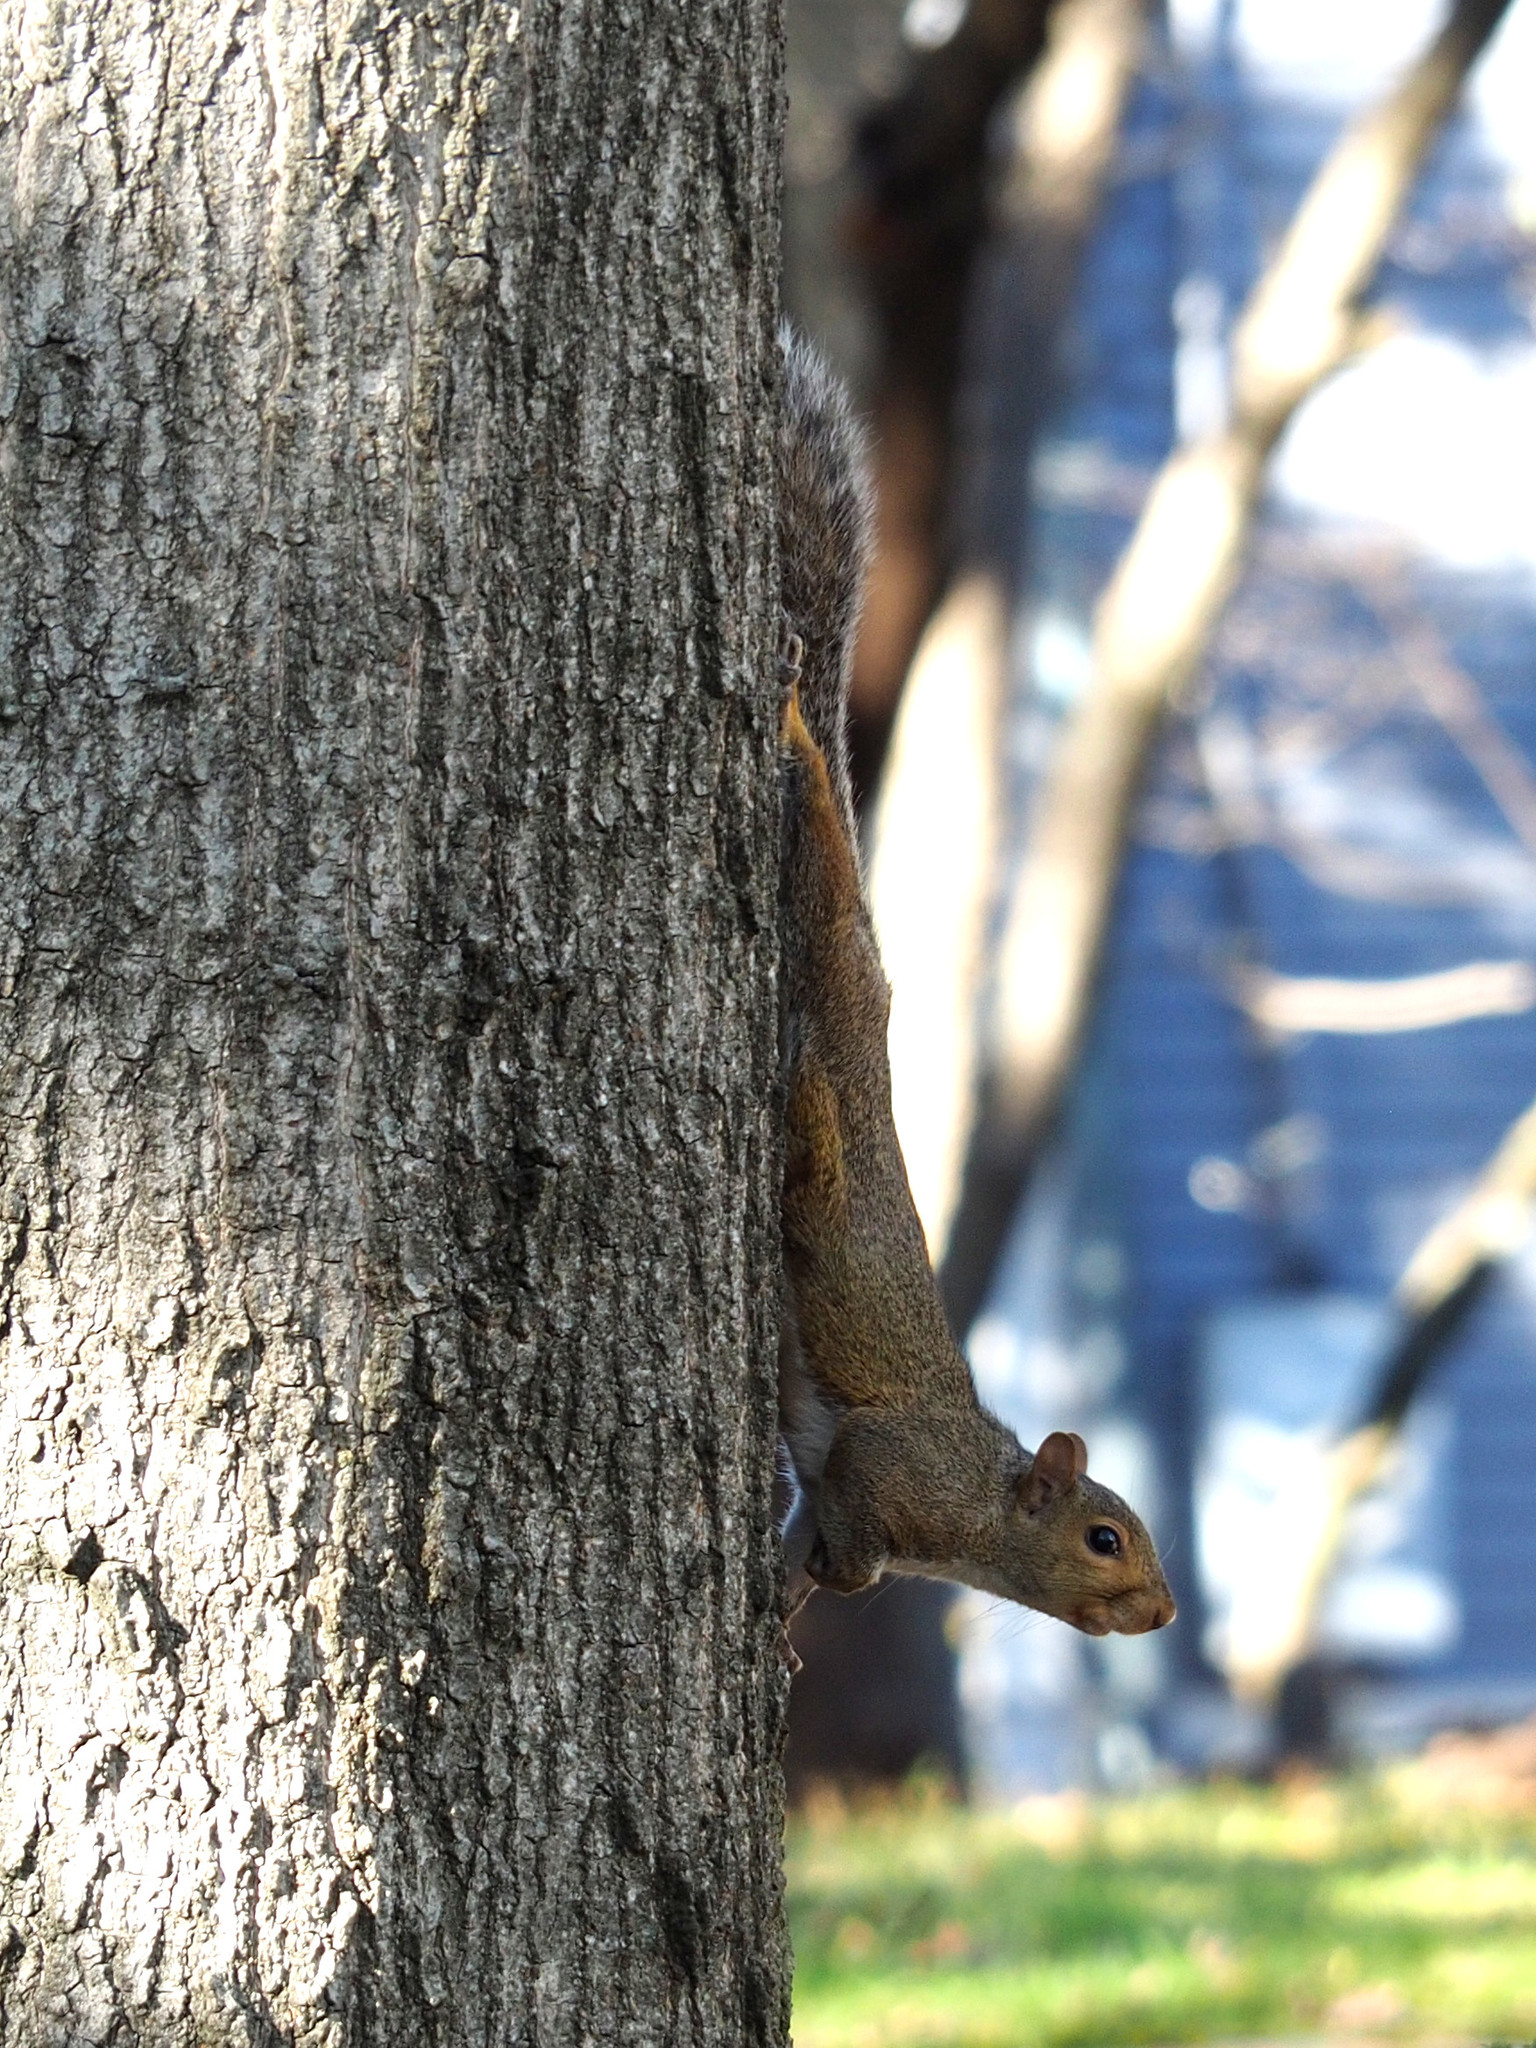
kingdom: Animalia
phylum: Chordata
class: Mammalia
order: Rodentia
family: Sciuridae
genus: Sciurus
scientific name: Sciurus carolinensis
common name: Eastern gray squirrel
